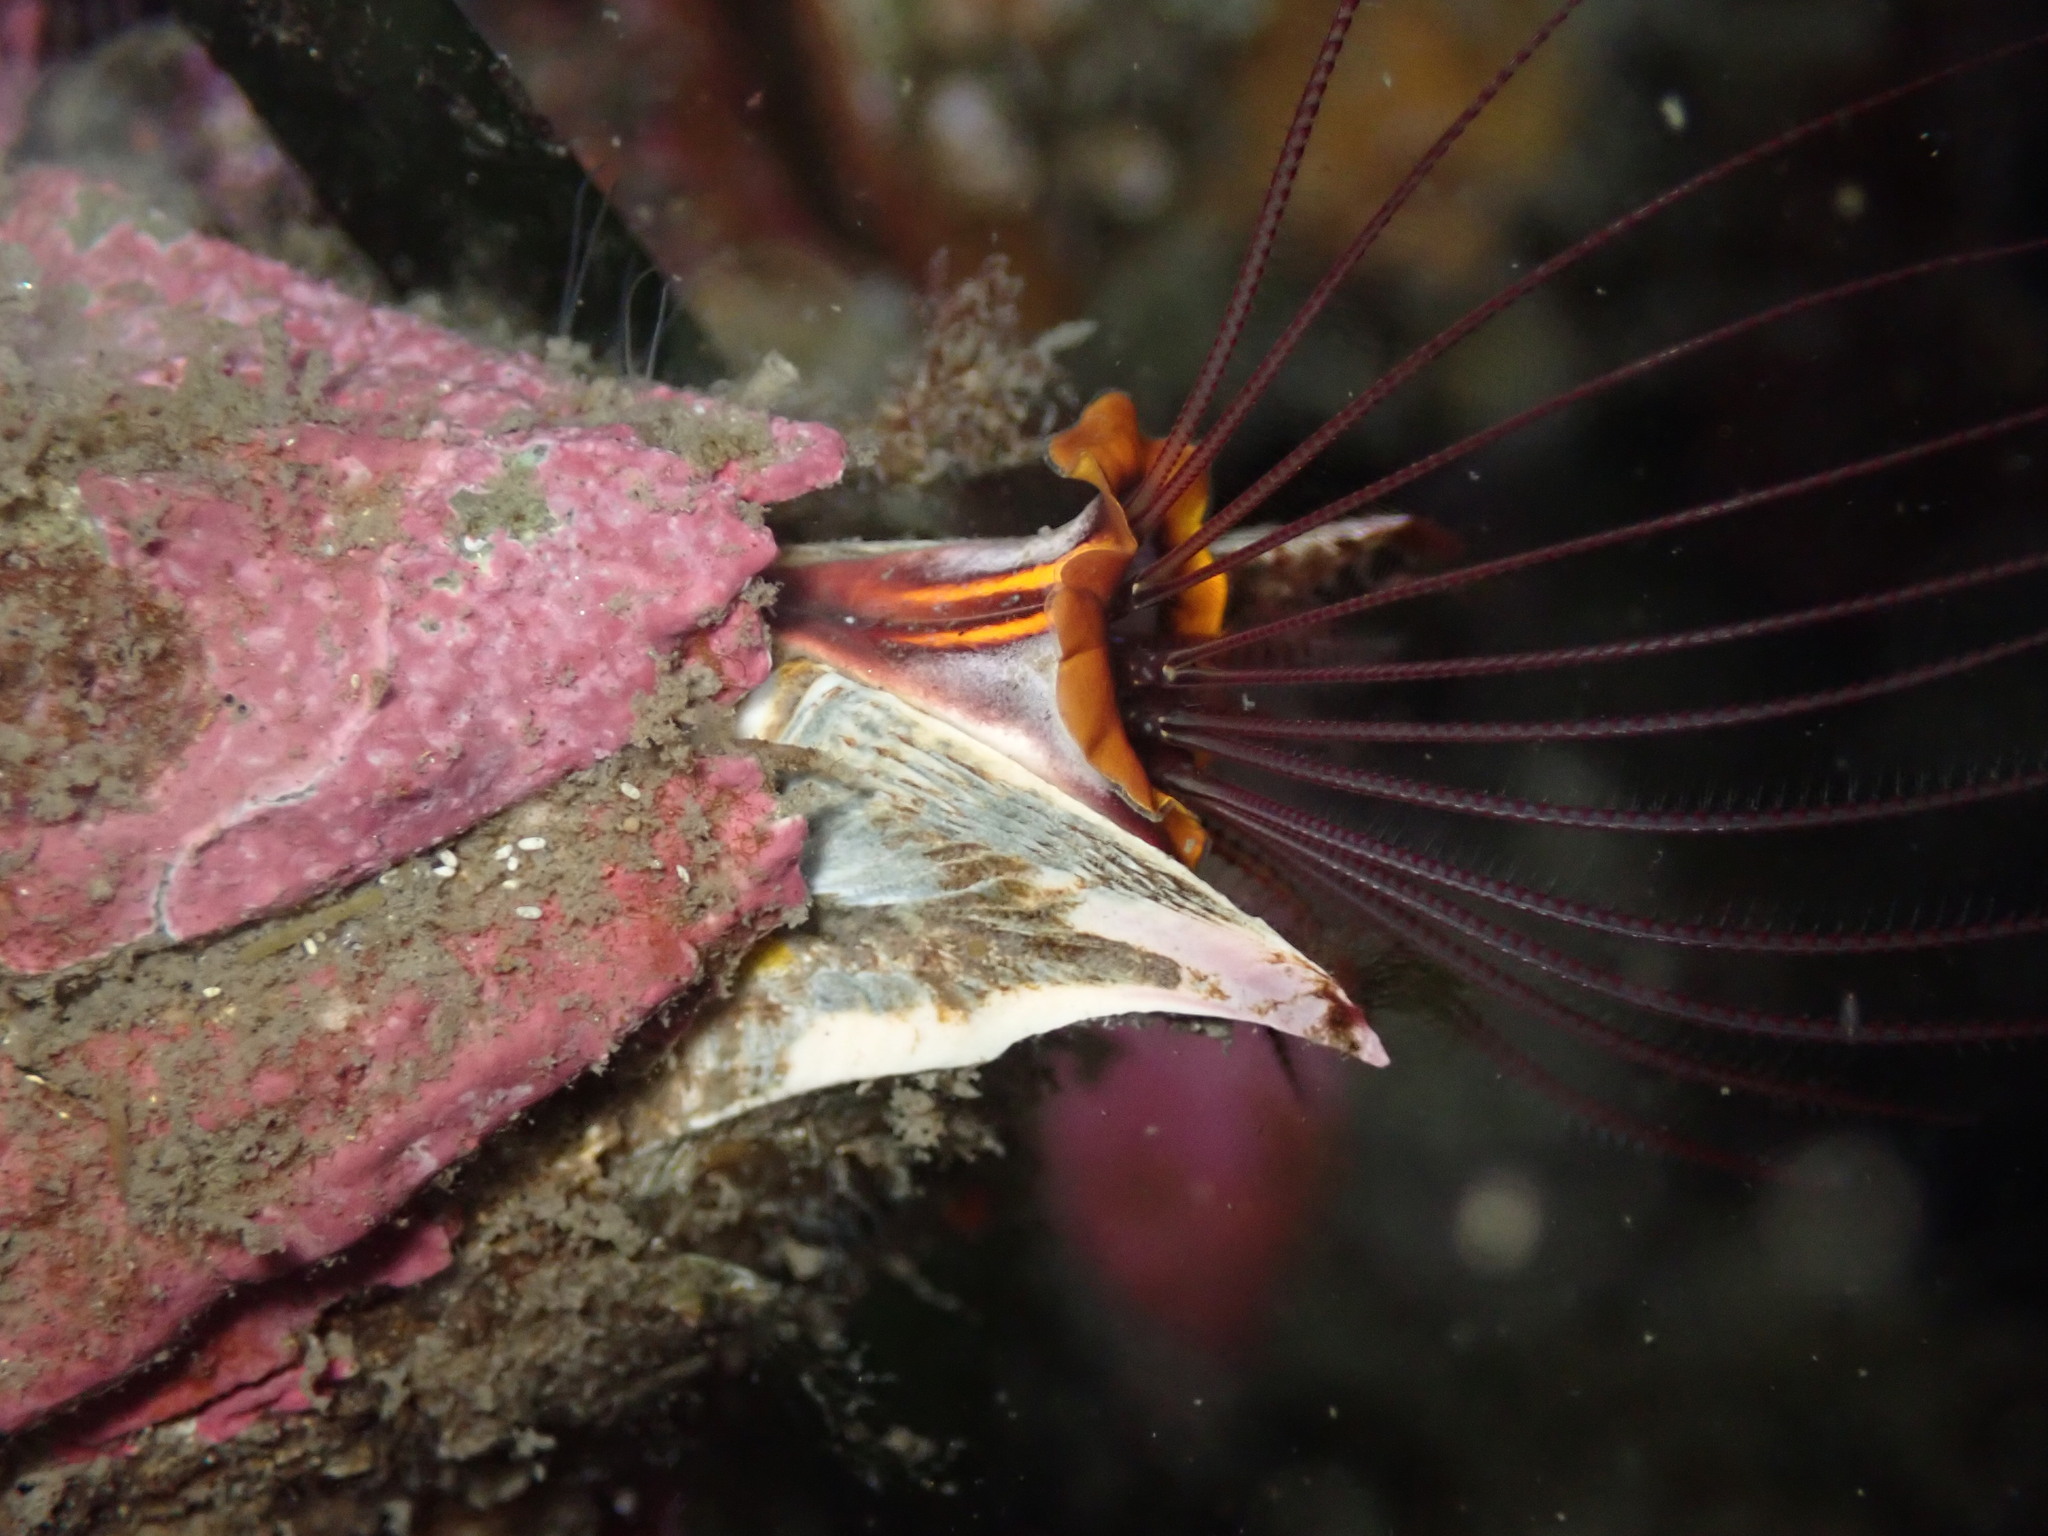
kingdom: Animalia
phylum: Arthropoda
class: Maxillopoda
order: Sessilia
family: Balanidae
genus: Balanus
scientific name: Balanus nubilus
